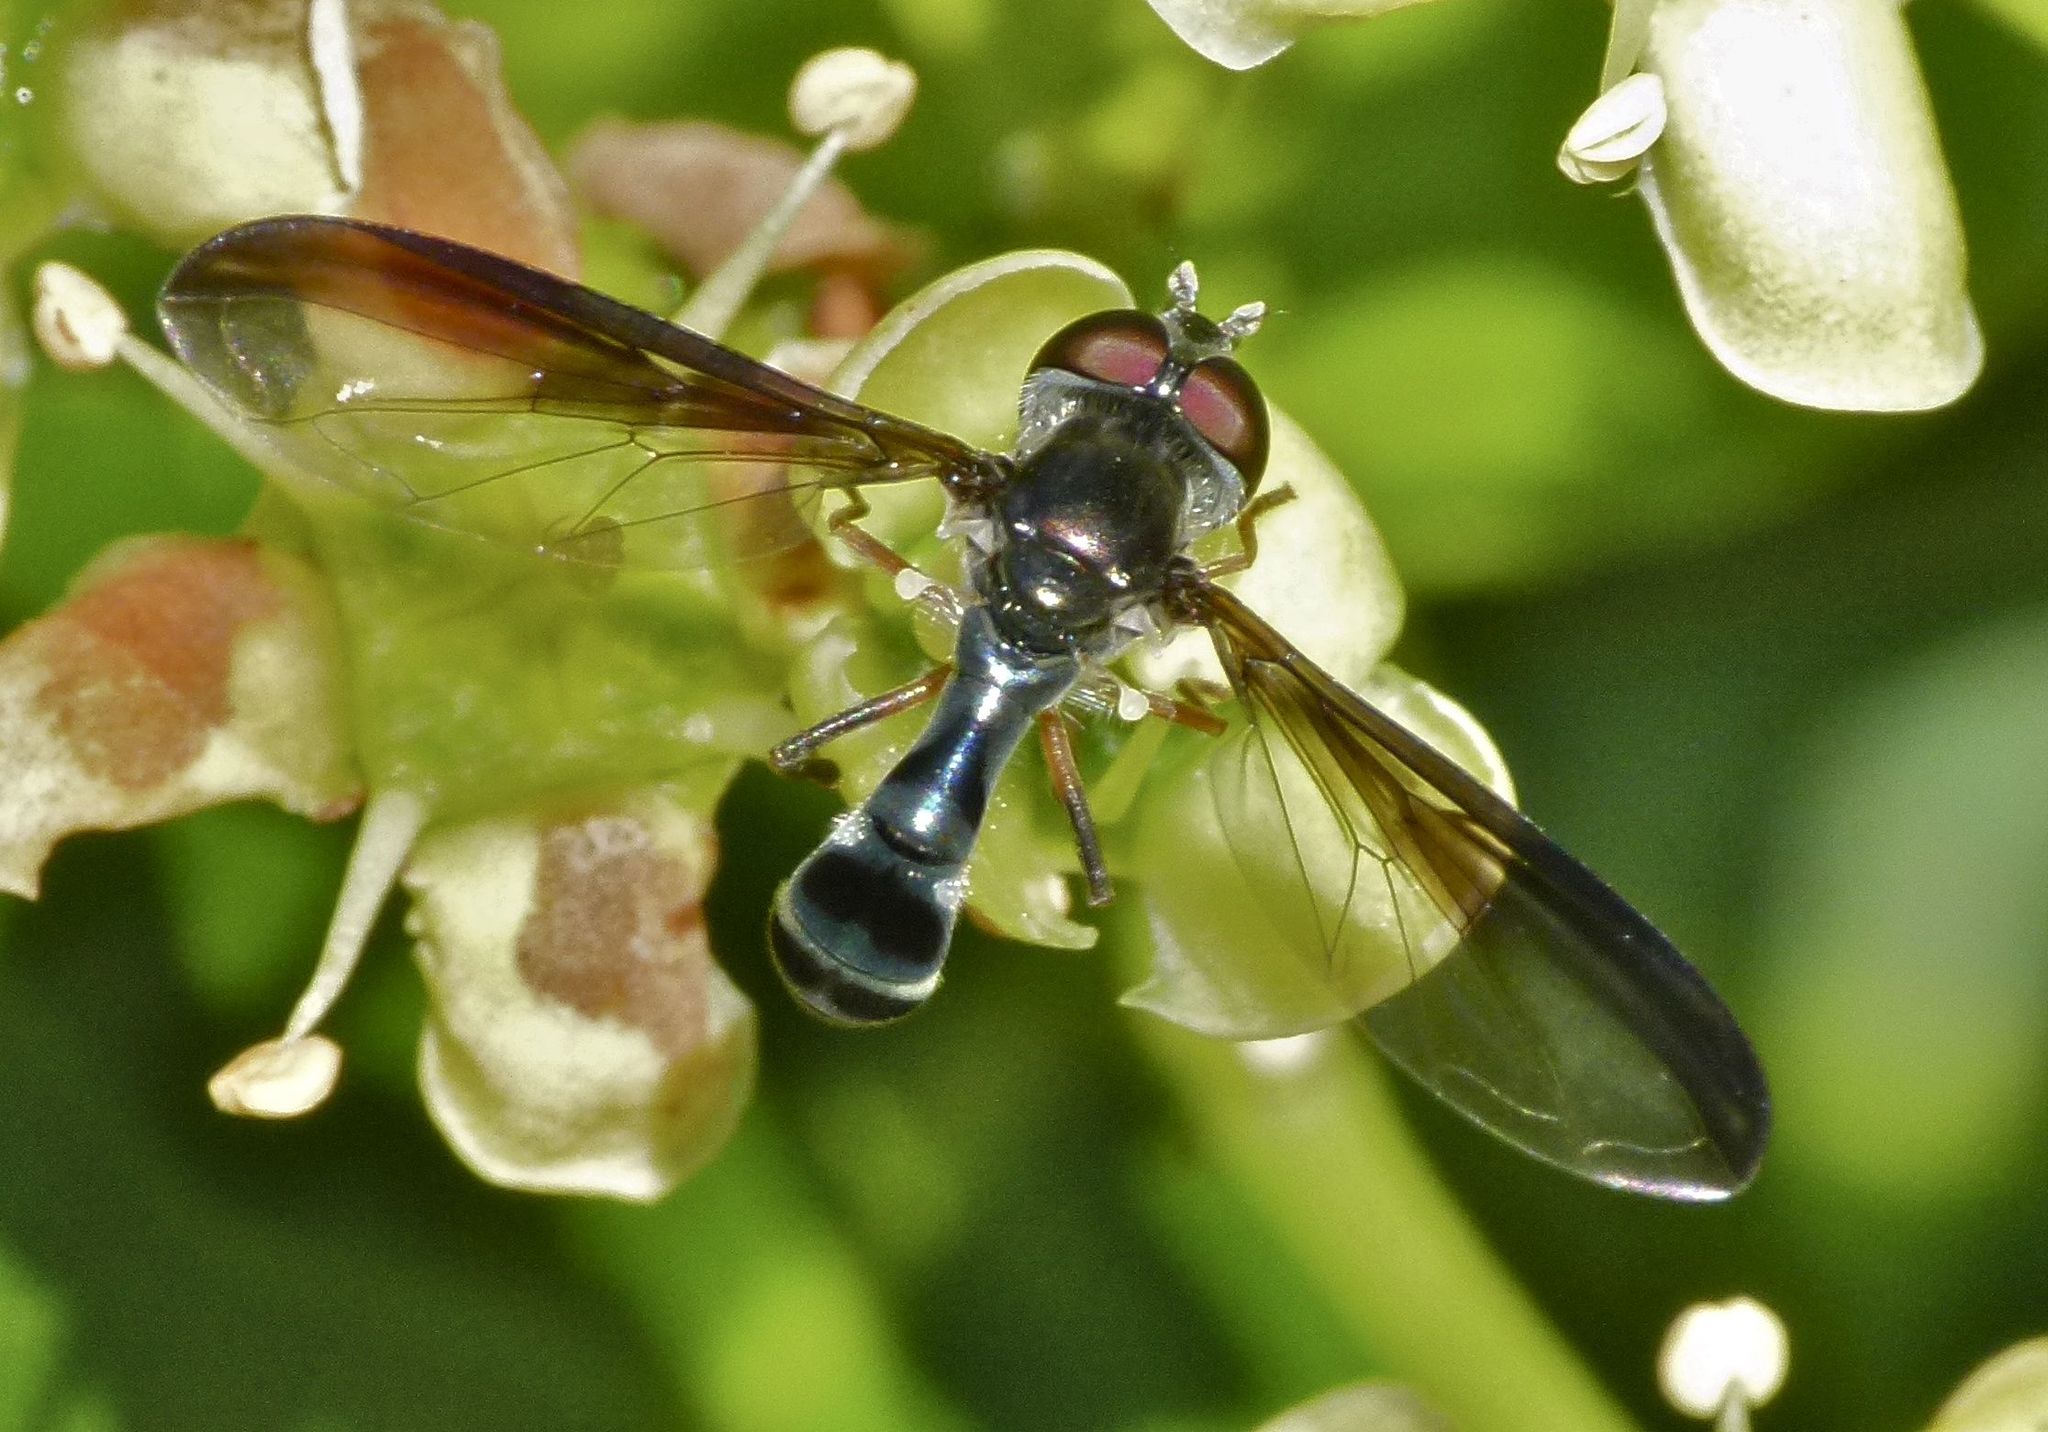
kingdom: Animalia
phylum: Arthropoda
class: Insecta
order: Diptera
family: Syrphidae
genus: Ocyptamus
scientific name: Ocyptamus costatus
